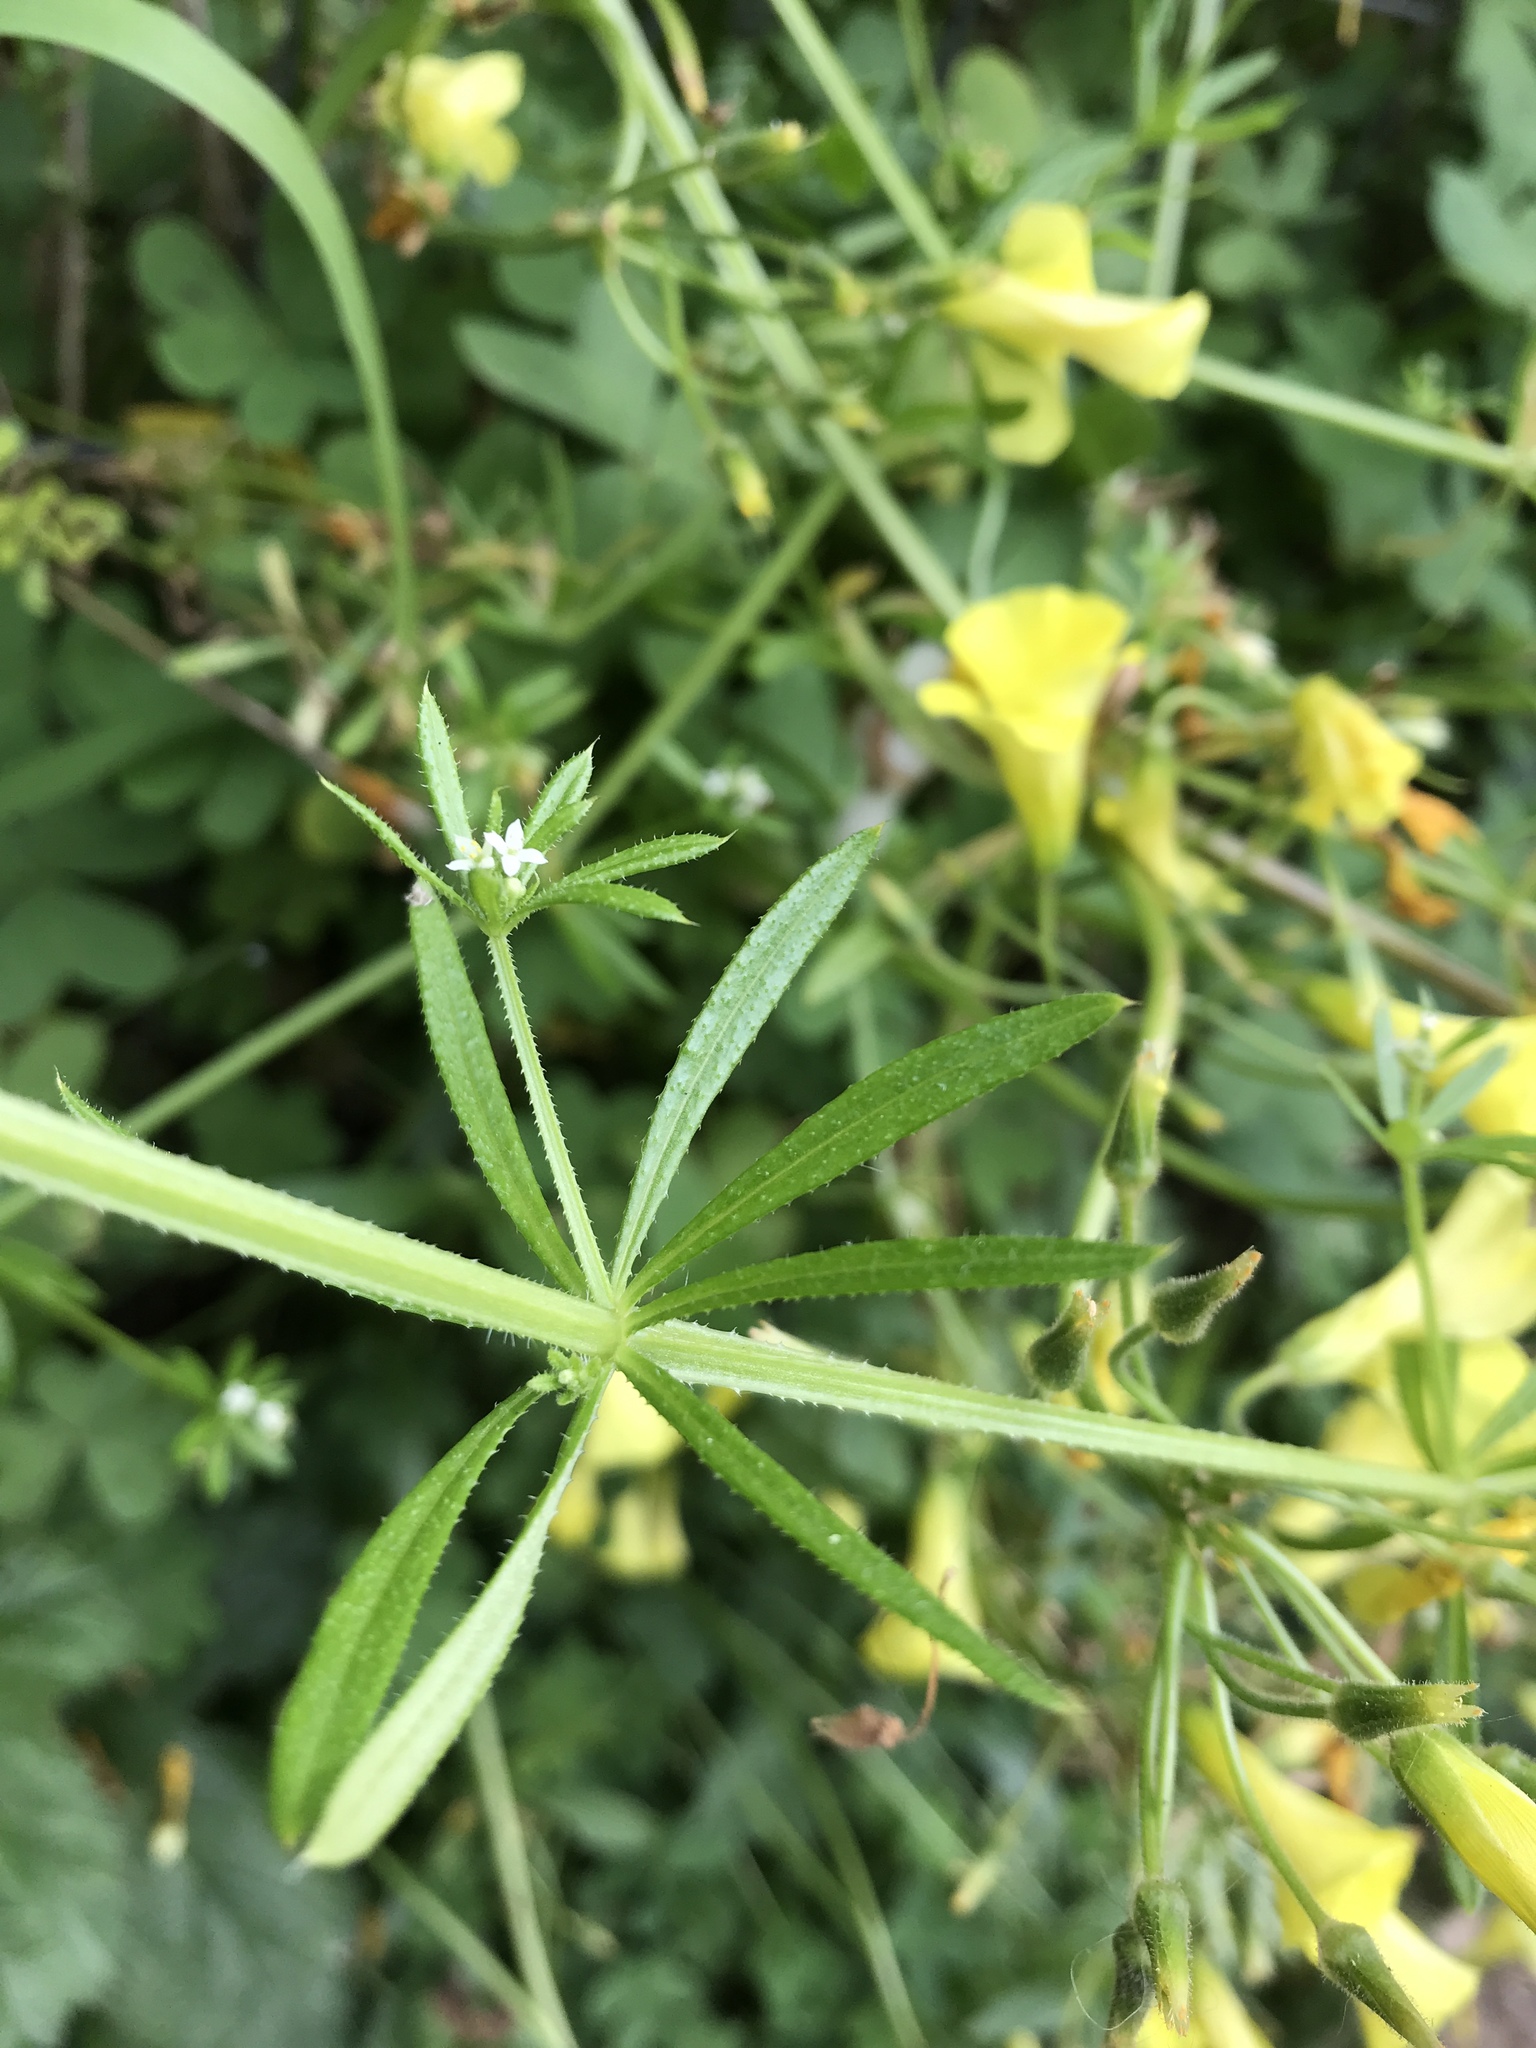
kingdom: Plantae
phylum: Tracheophyta
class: Magnoliopsida
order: Oxalidales
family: Oxalidaceae
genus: Oxalis
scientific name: Oxalis pes-caprae
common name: Bermuda-buttercup
